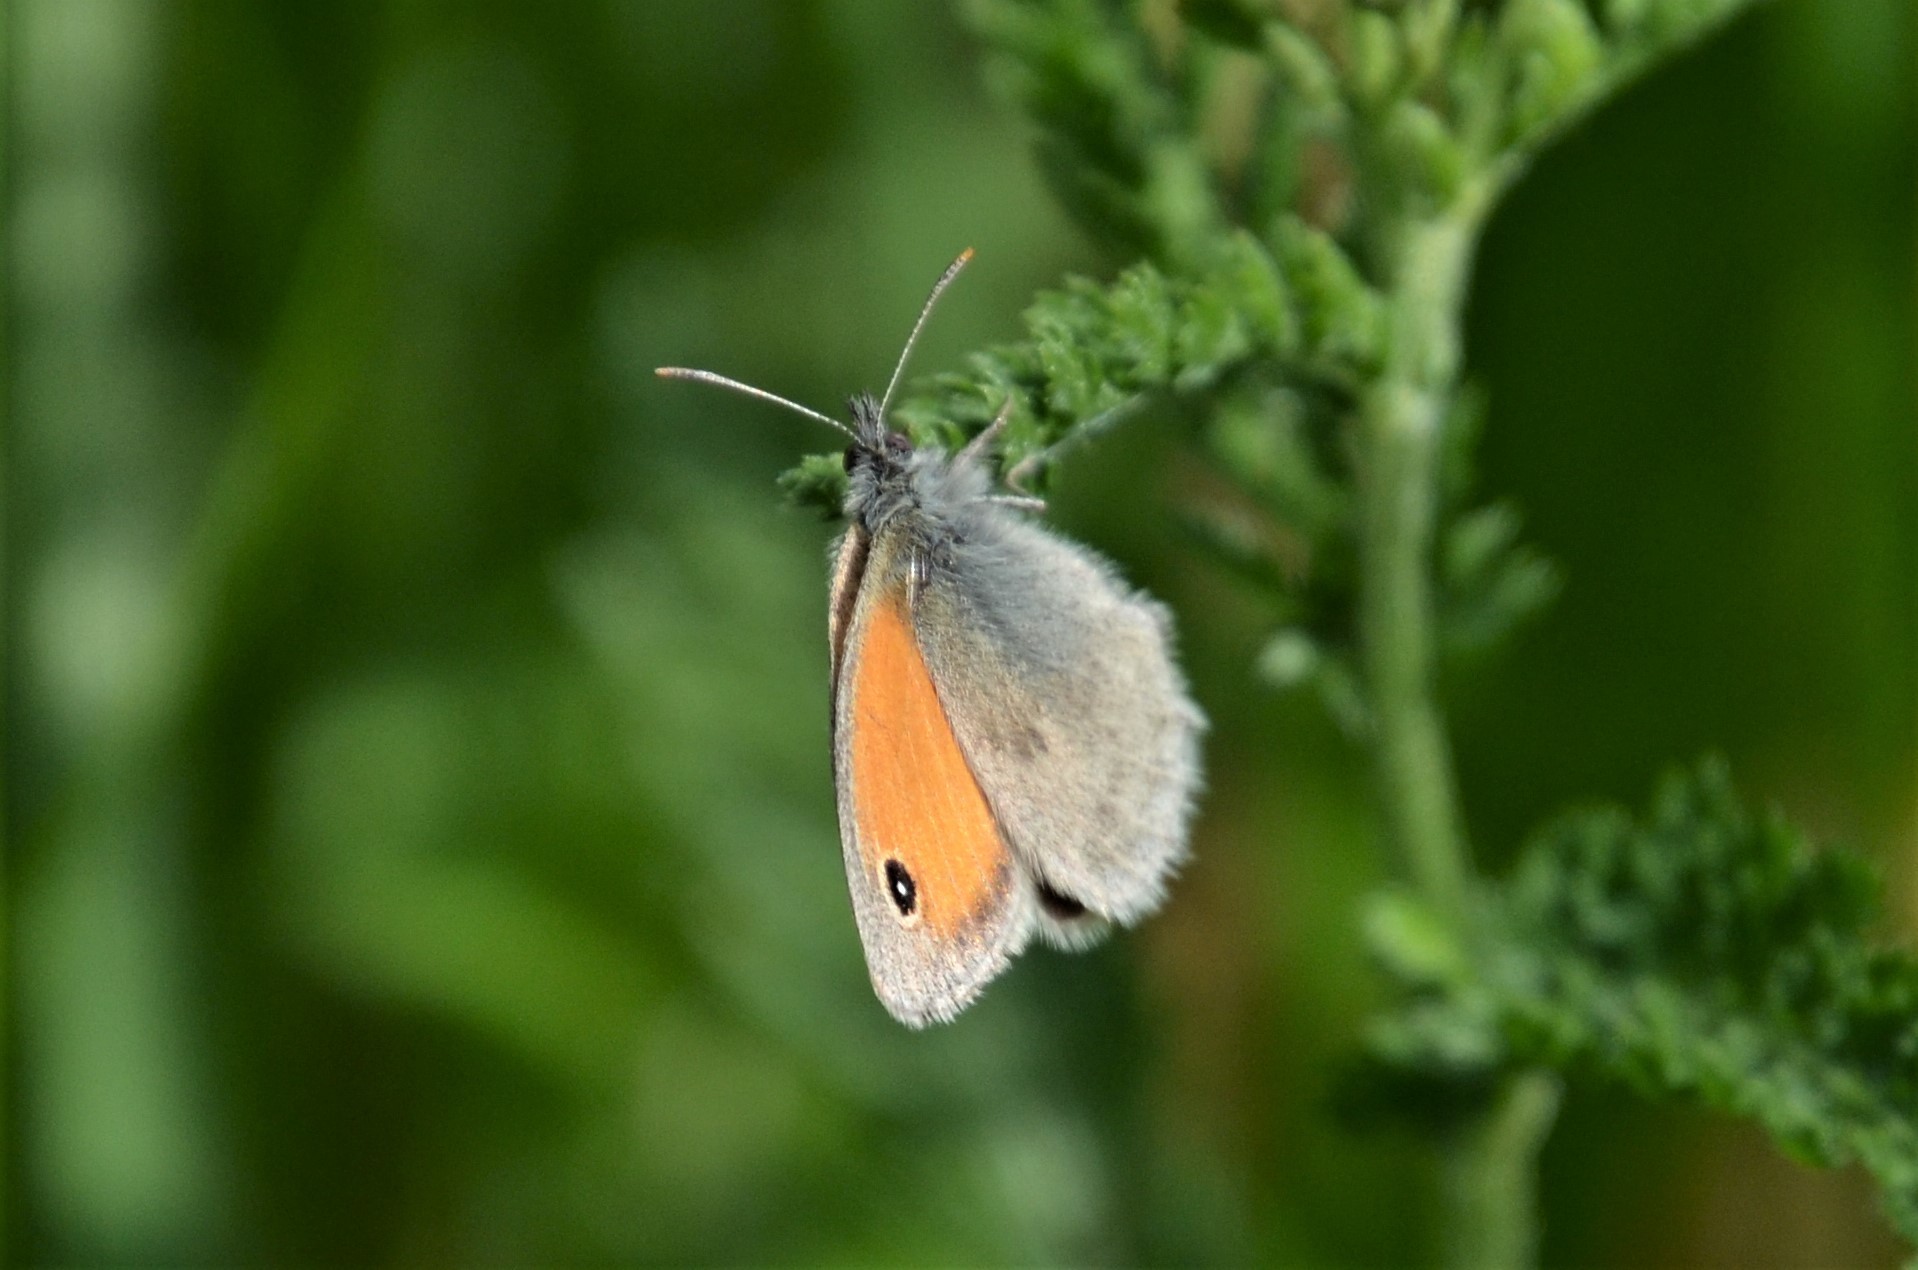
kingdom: Animalia
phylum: Arthropoda
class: Insecta
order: Lepidoptera
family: Nymphalidae
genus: Coenonympha
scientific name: Coenonympha pamphilus
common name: Small heath
